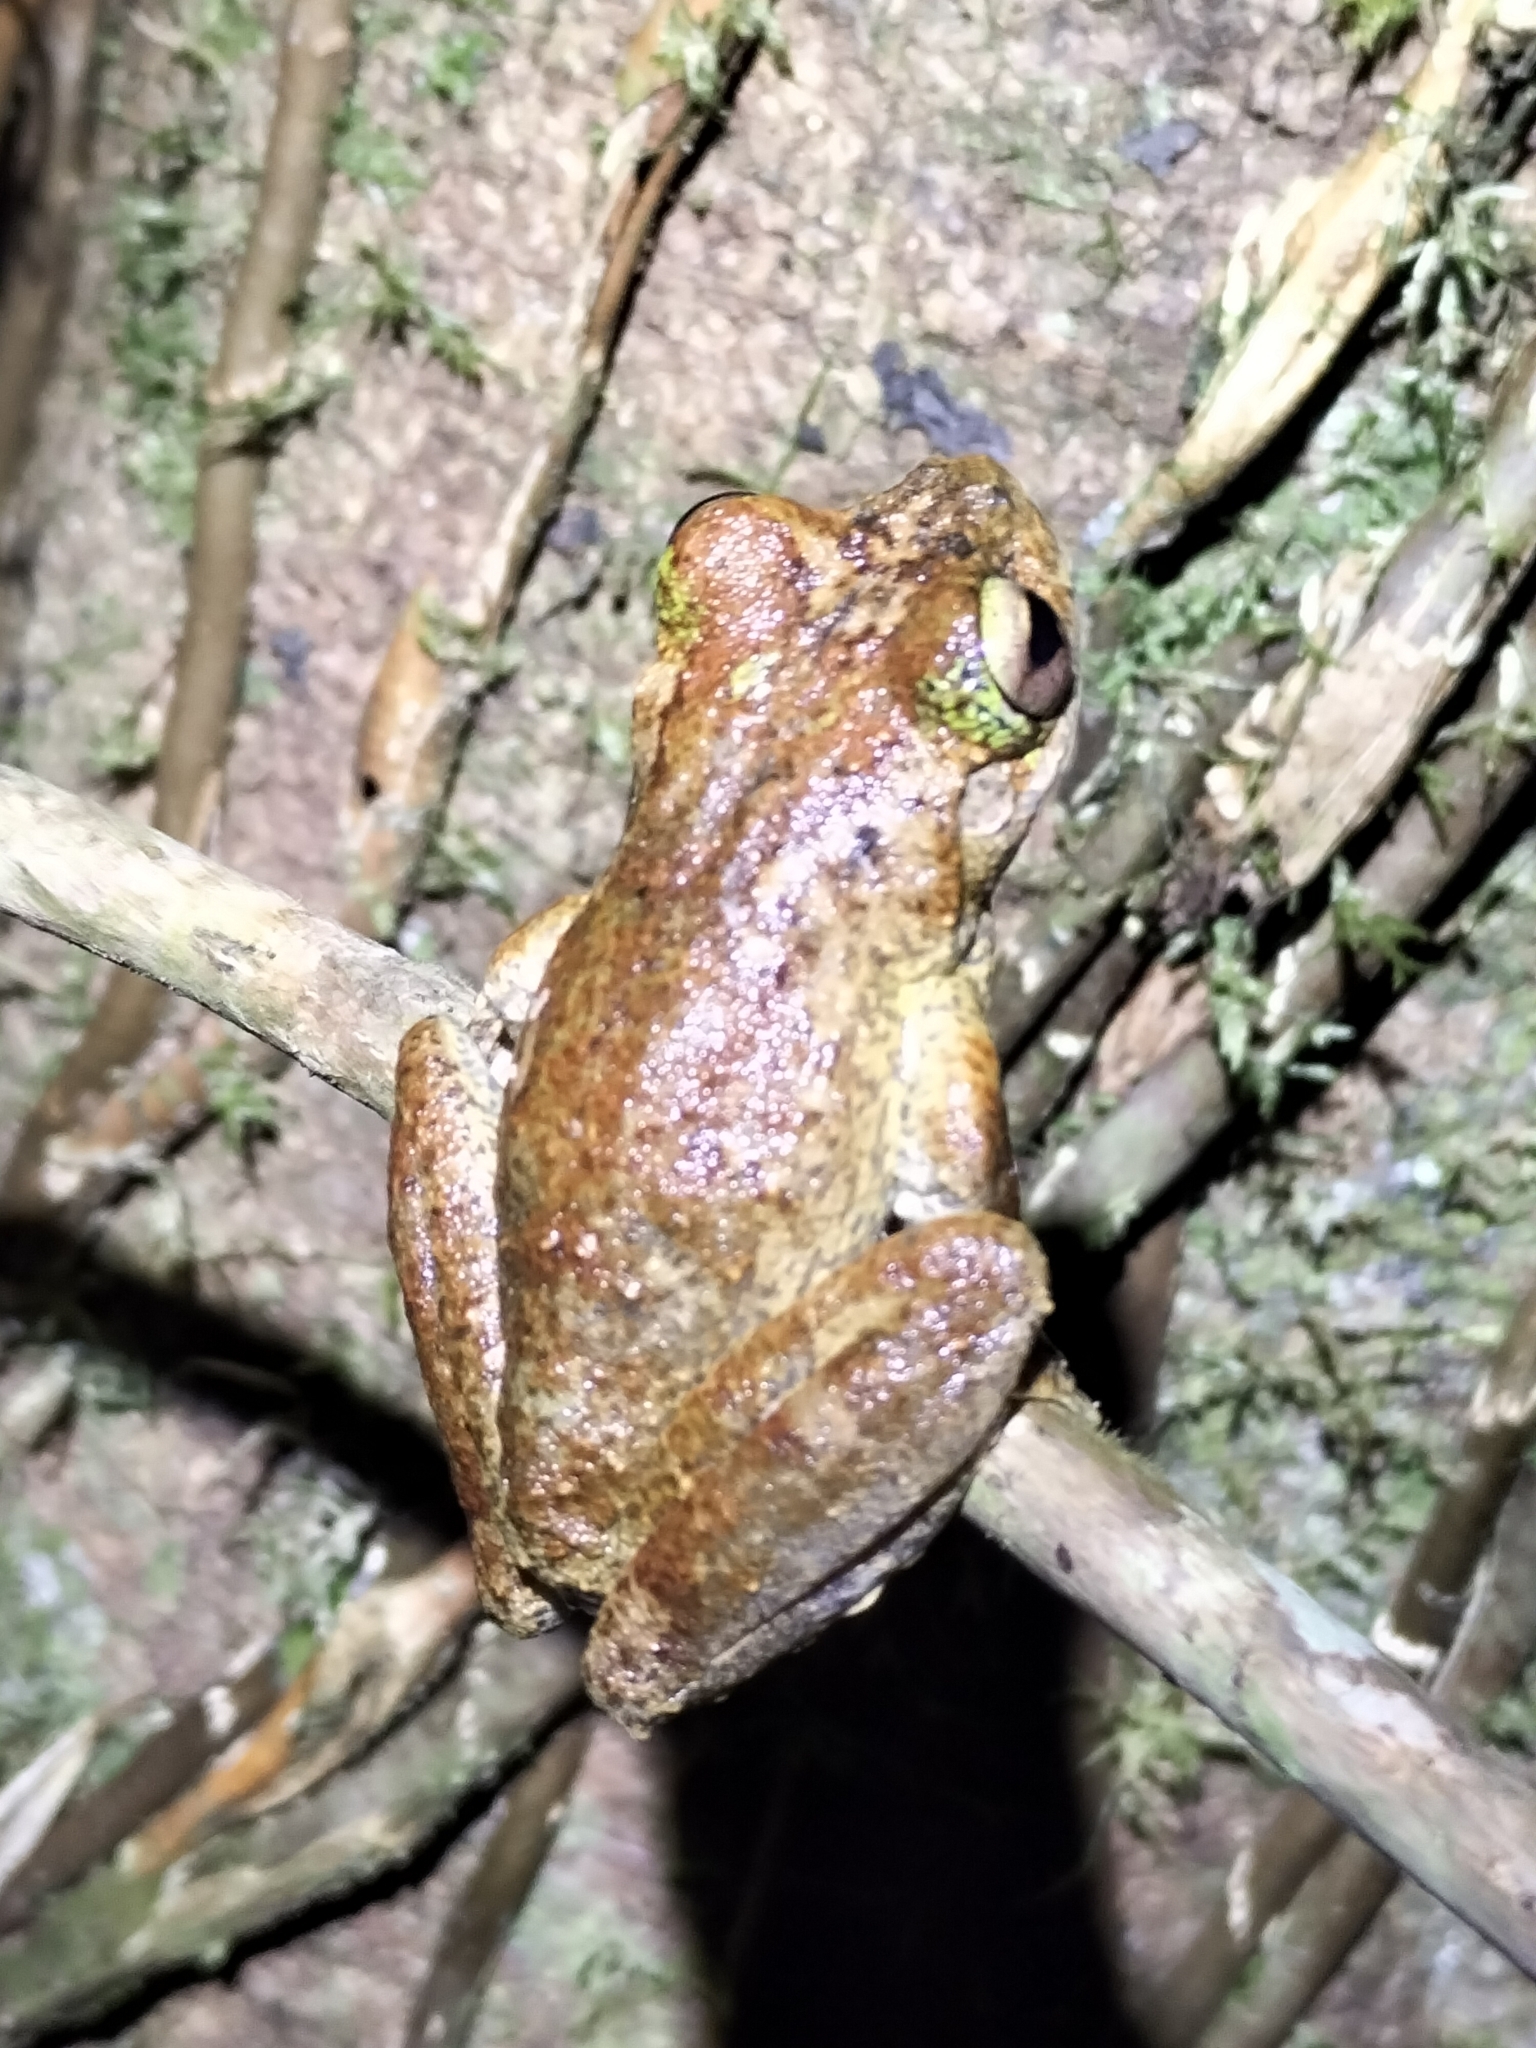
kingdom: Animalia
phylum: Chordata
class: Amphibia
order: Anura
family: Pelodryadidae
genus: Ranoidea
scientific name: Ranoidea serrata
